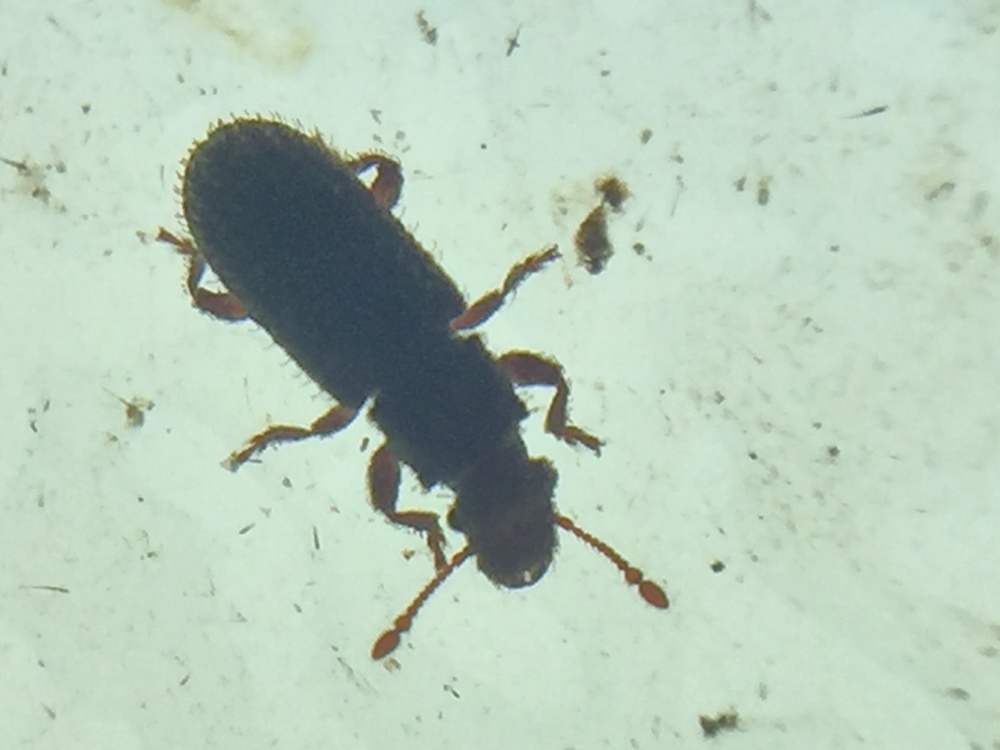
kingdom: Animalia
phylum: Arthropoda
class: Insecta
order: Coleoptera
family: Belidae
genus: Aralius
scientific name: Aralius wollastoni
